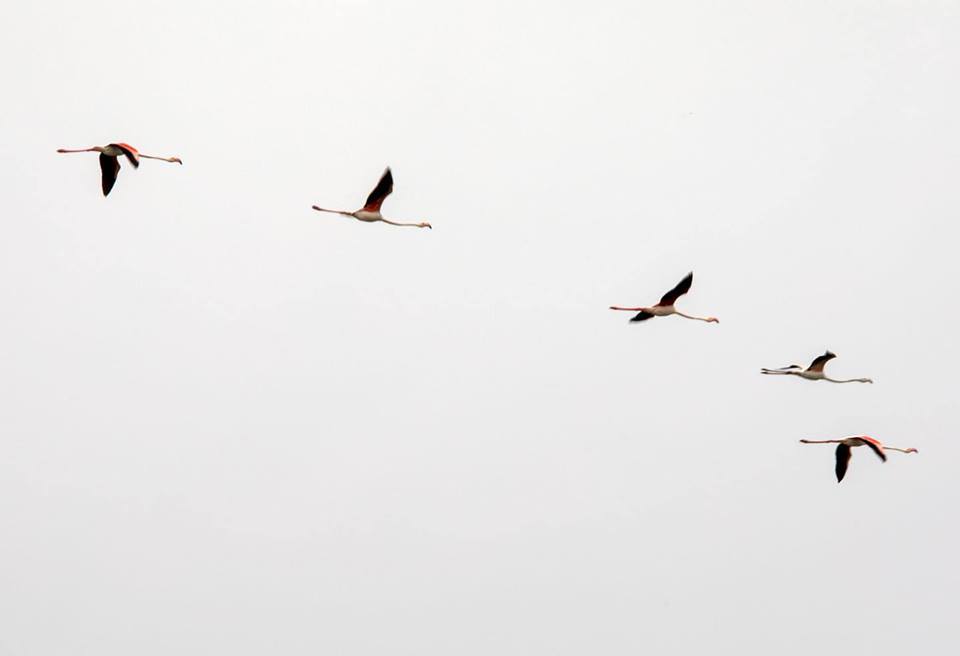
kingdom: Animalia
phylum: Chordata
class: Aves
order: Phoenicopteriformes
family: Phoenicopteridae
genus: Phoenicopterus
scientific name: Phoenicopterus roseus
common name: Greater flamingo
